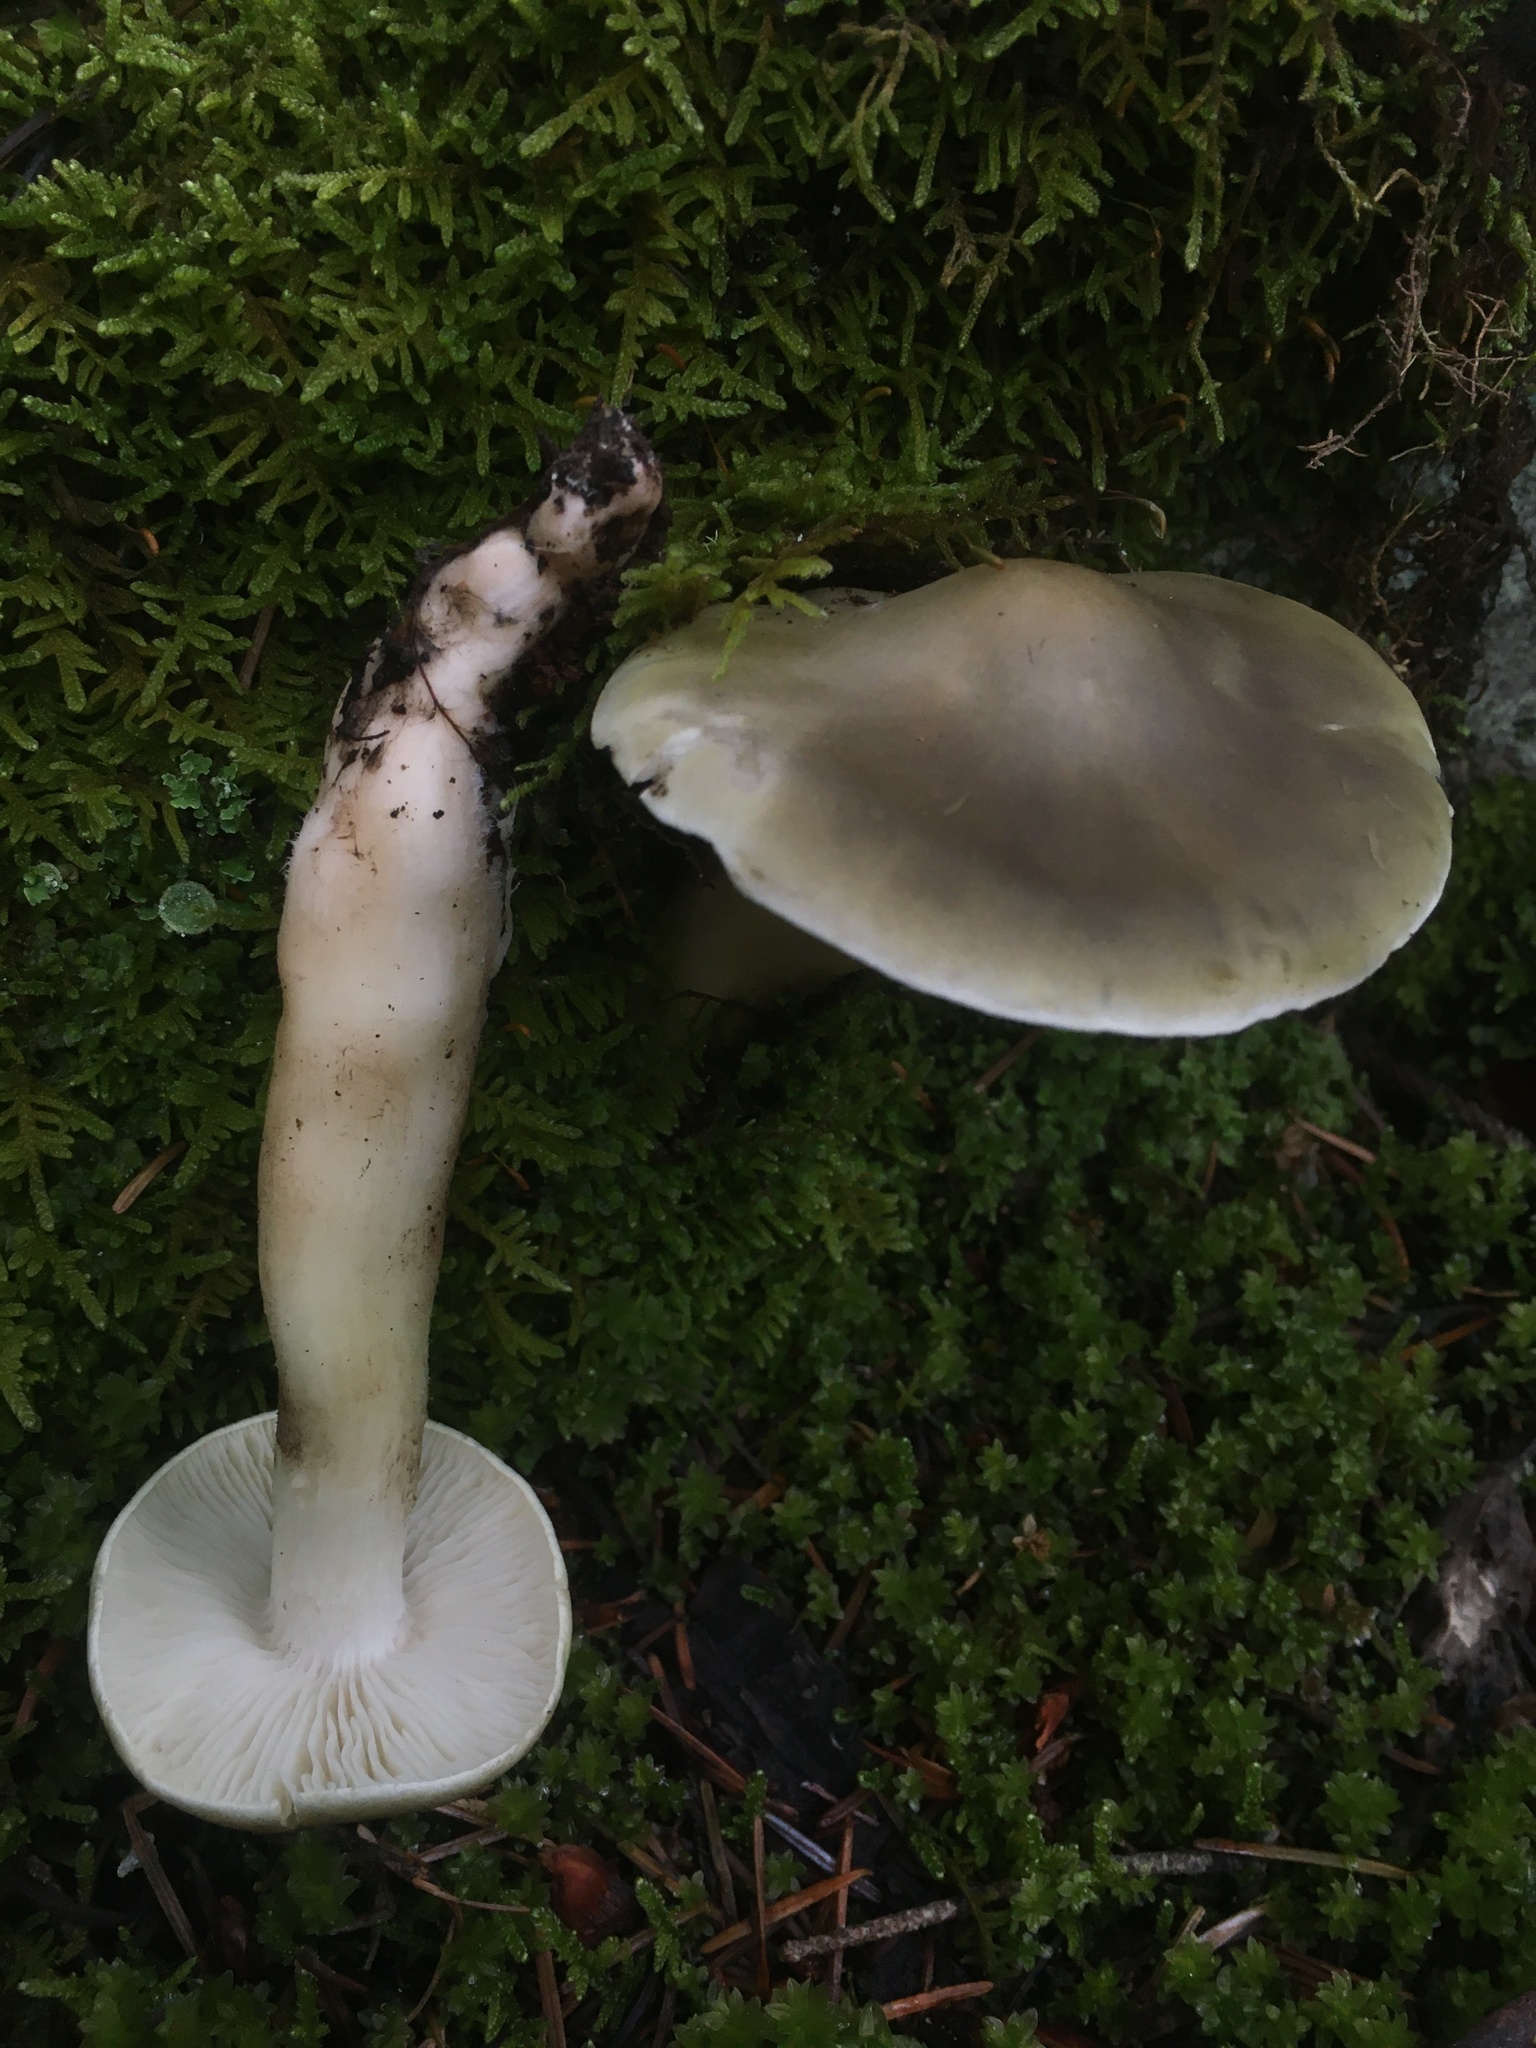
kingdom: Fungi
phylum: Basidiomycota
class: Agaricomycetes
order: Agaricales
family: Tricholomataceae
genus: Tricholoma
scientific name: Tricholoma saponaceum
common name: Soapy trich
